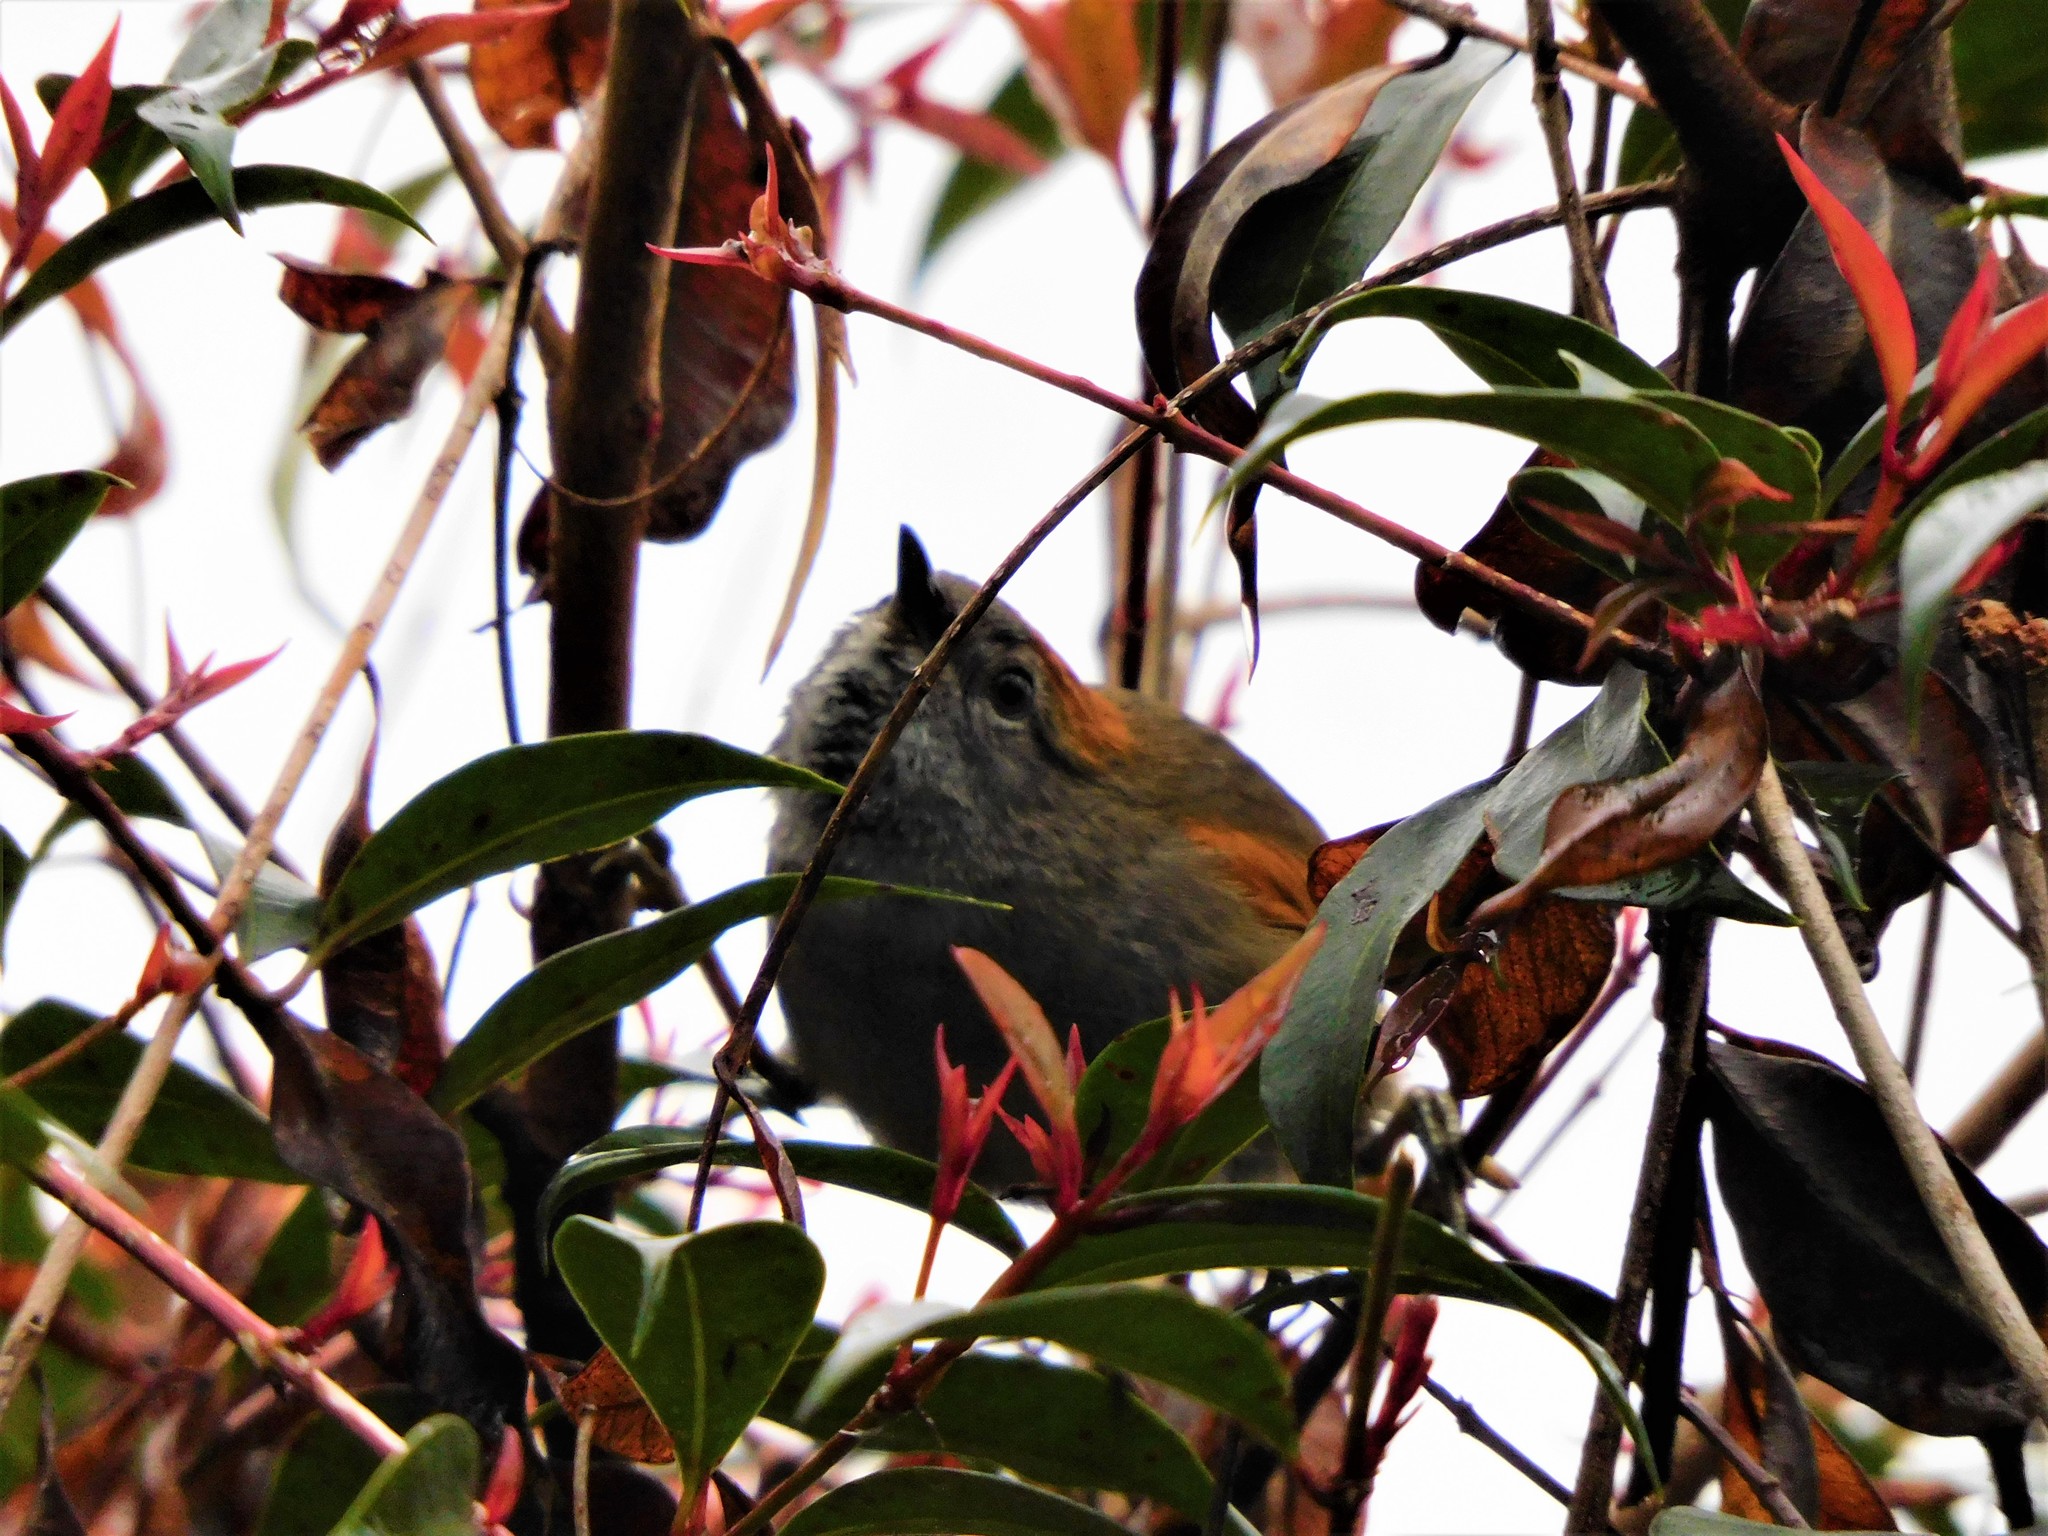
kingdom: Animalia
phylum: Chordata
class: Aves
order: Passeriformes
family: Furnariidae
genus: Cranioleuca
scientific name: Cranioleuca erythrops
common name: Red-faced spinetail
